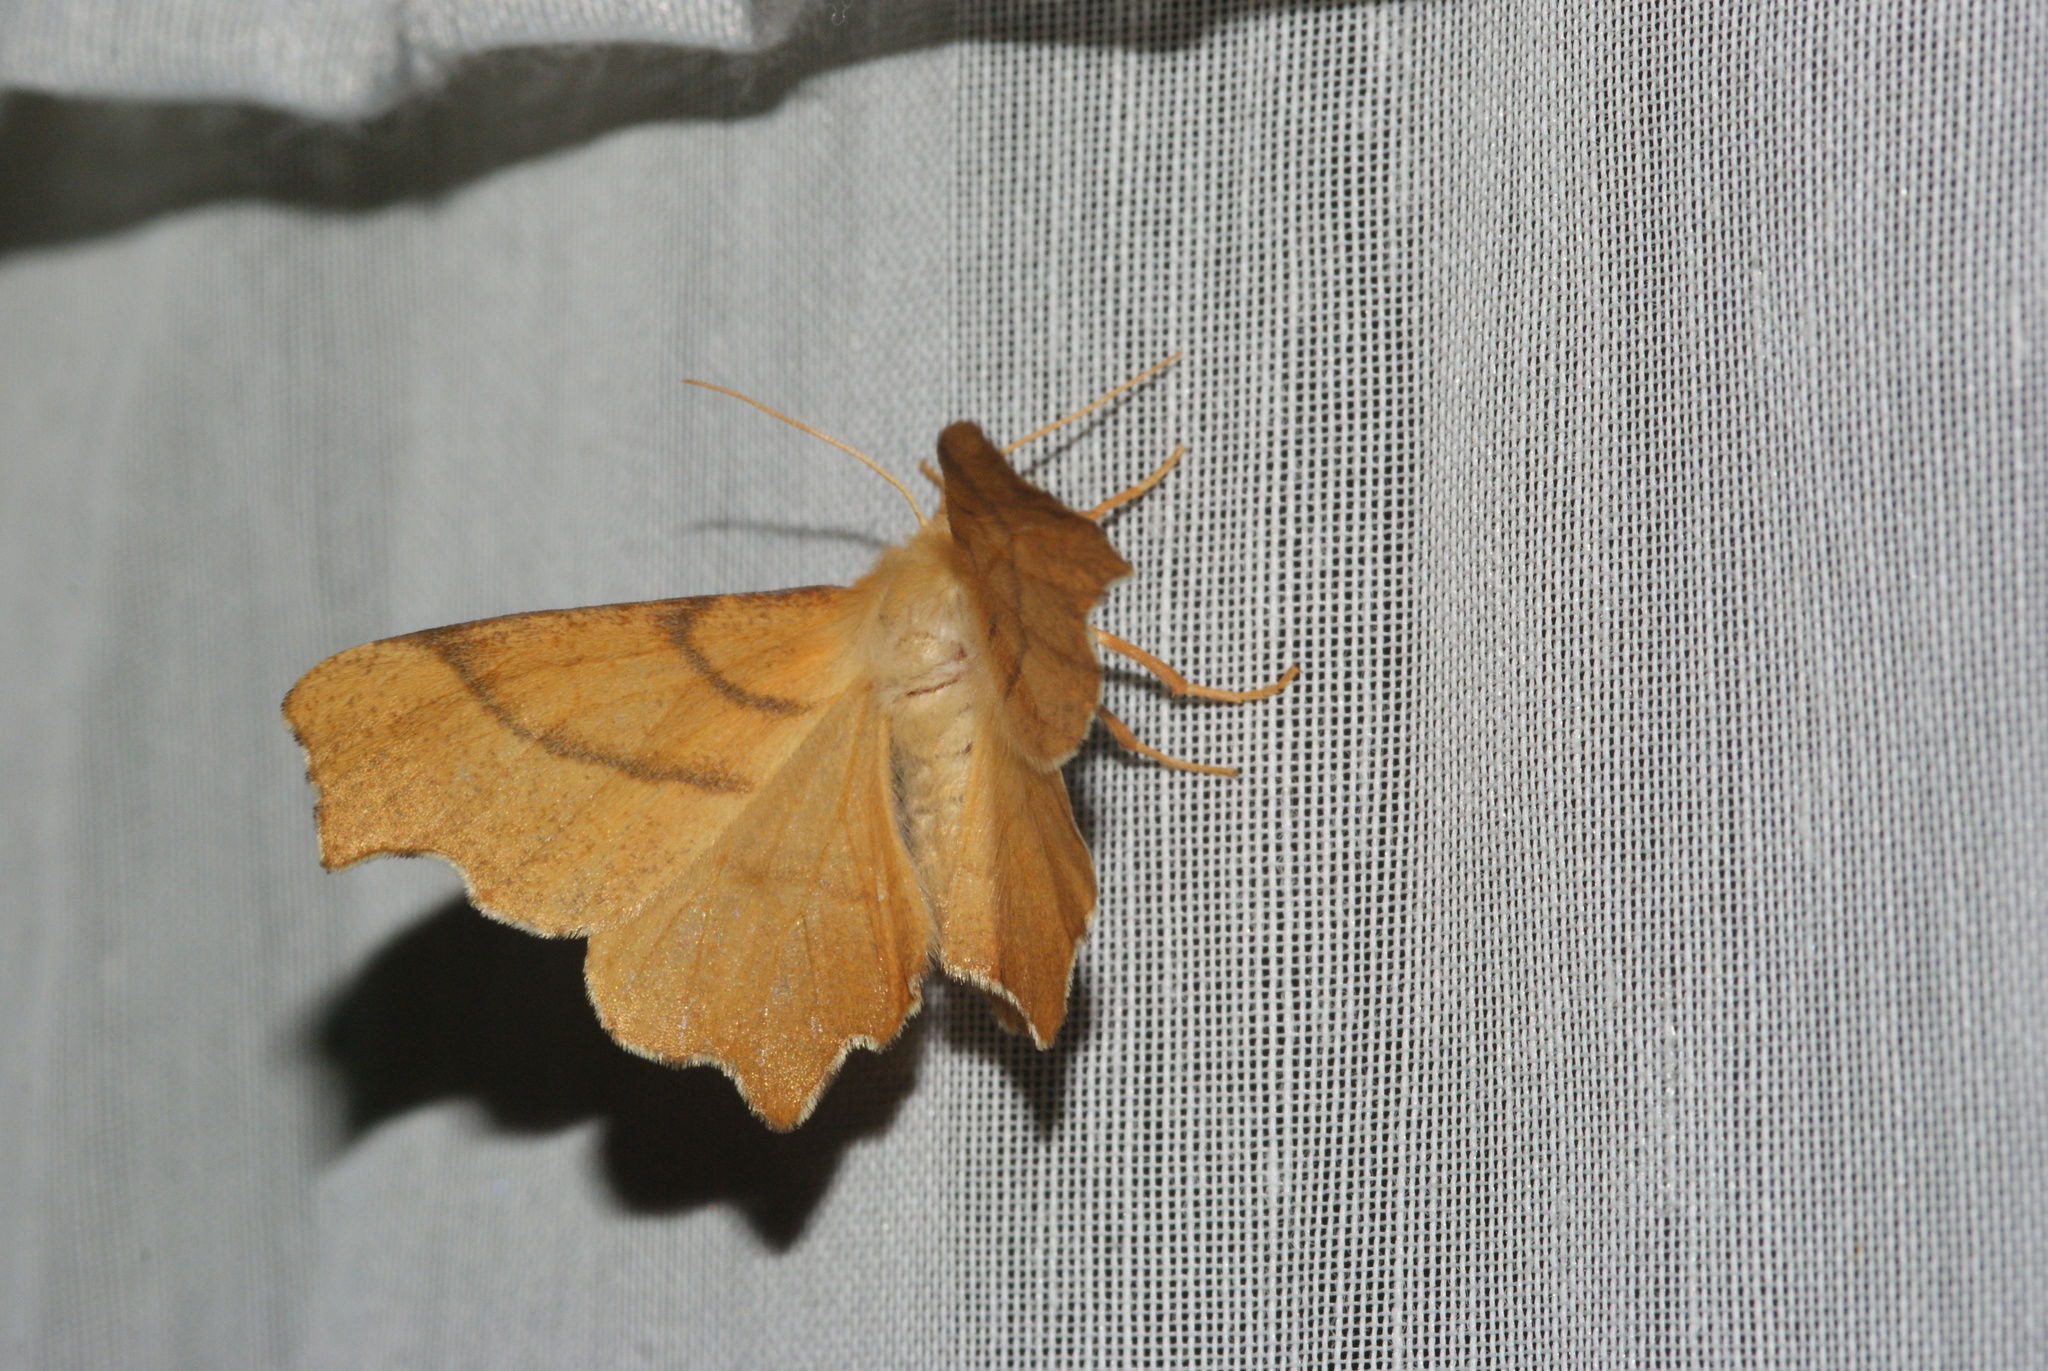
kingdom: Animalia
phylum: Arthropoda
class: Insecta
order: Lepidoptera
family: Geometridae
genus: Ennomos
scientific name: Ennomos erosaria
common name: September thorn
